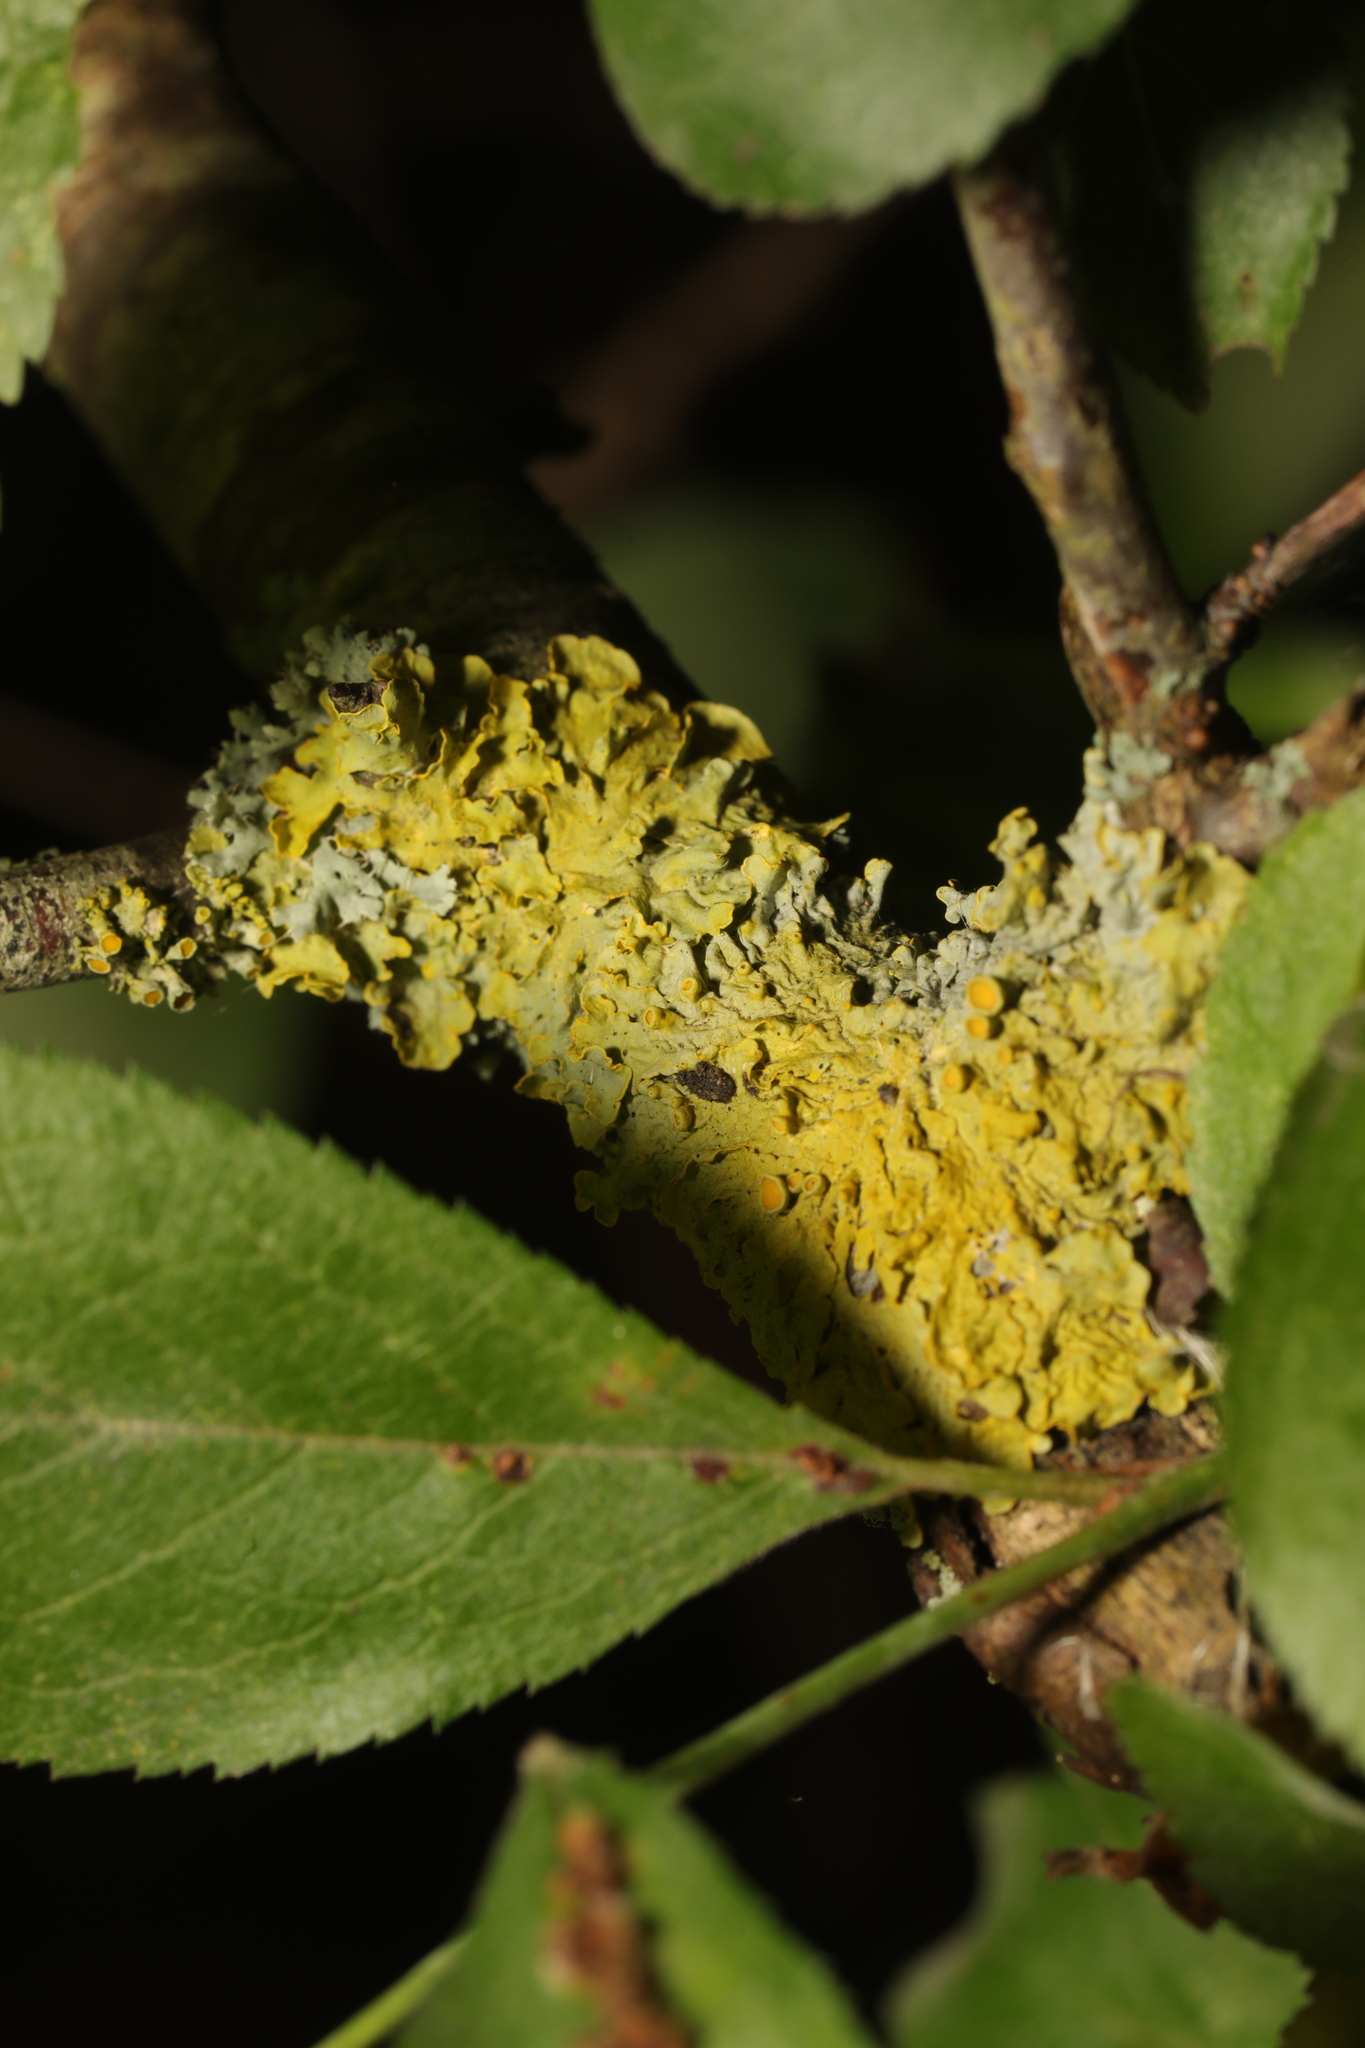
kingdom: Fungi
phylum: Ascomycota
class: Lecanoromycetes
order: Teloschistales
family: Teloschistaceae
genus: Xanthoria
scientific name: Xanthoria parietina
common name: Common orange lichen
